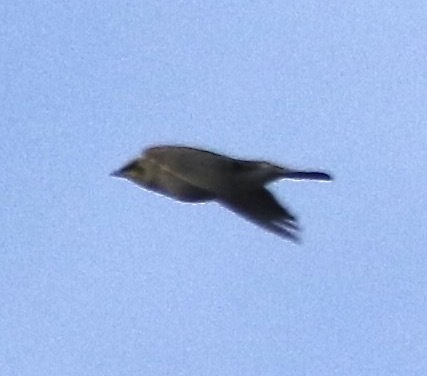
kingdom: Animalia
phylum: Chordata
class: Aves
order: Passeriformes
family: Alaudidae
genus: Eremophila
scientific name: Eremophila alpestris
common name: Horned lark
